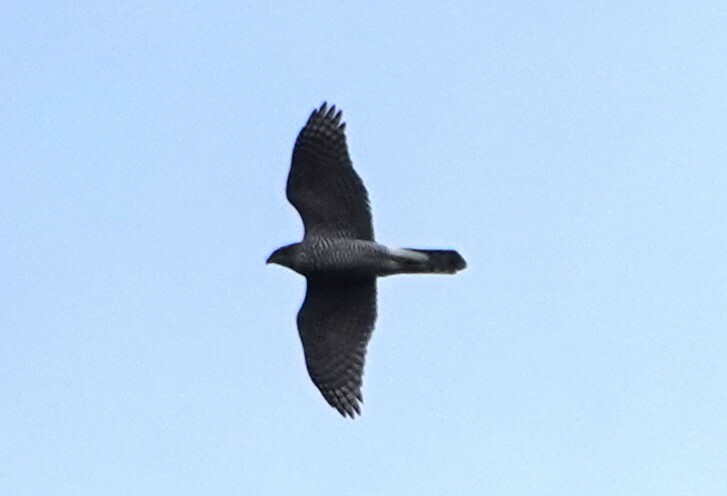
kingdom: Animalia
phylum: Chordata
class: Aves
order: Accipitriformes
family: Accipitridae
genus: Accipiter
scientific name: Accipiter gentilis
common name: Northern goshawk
